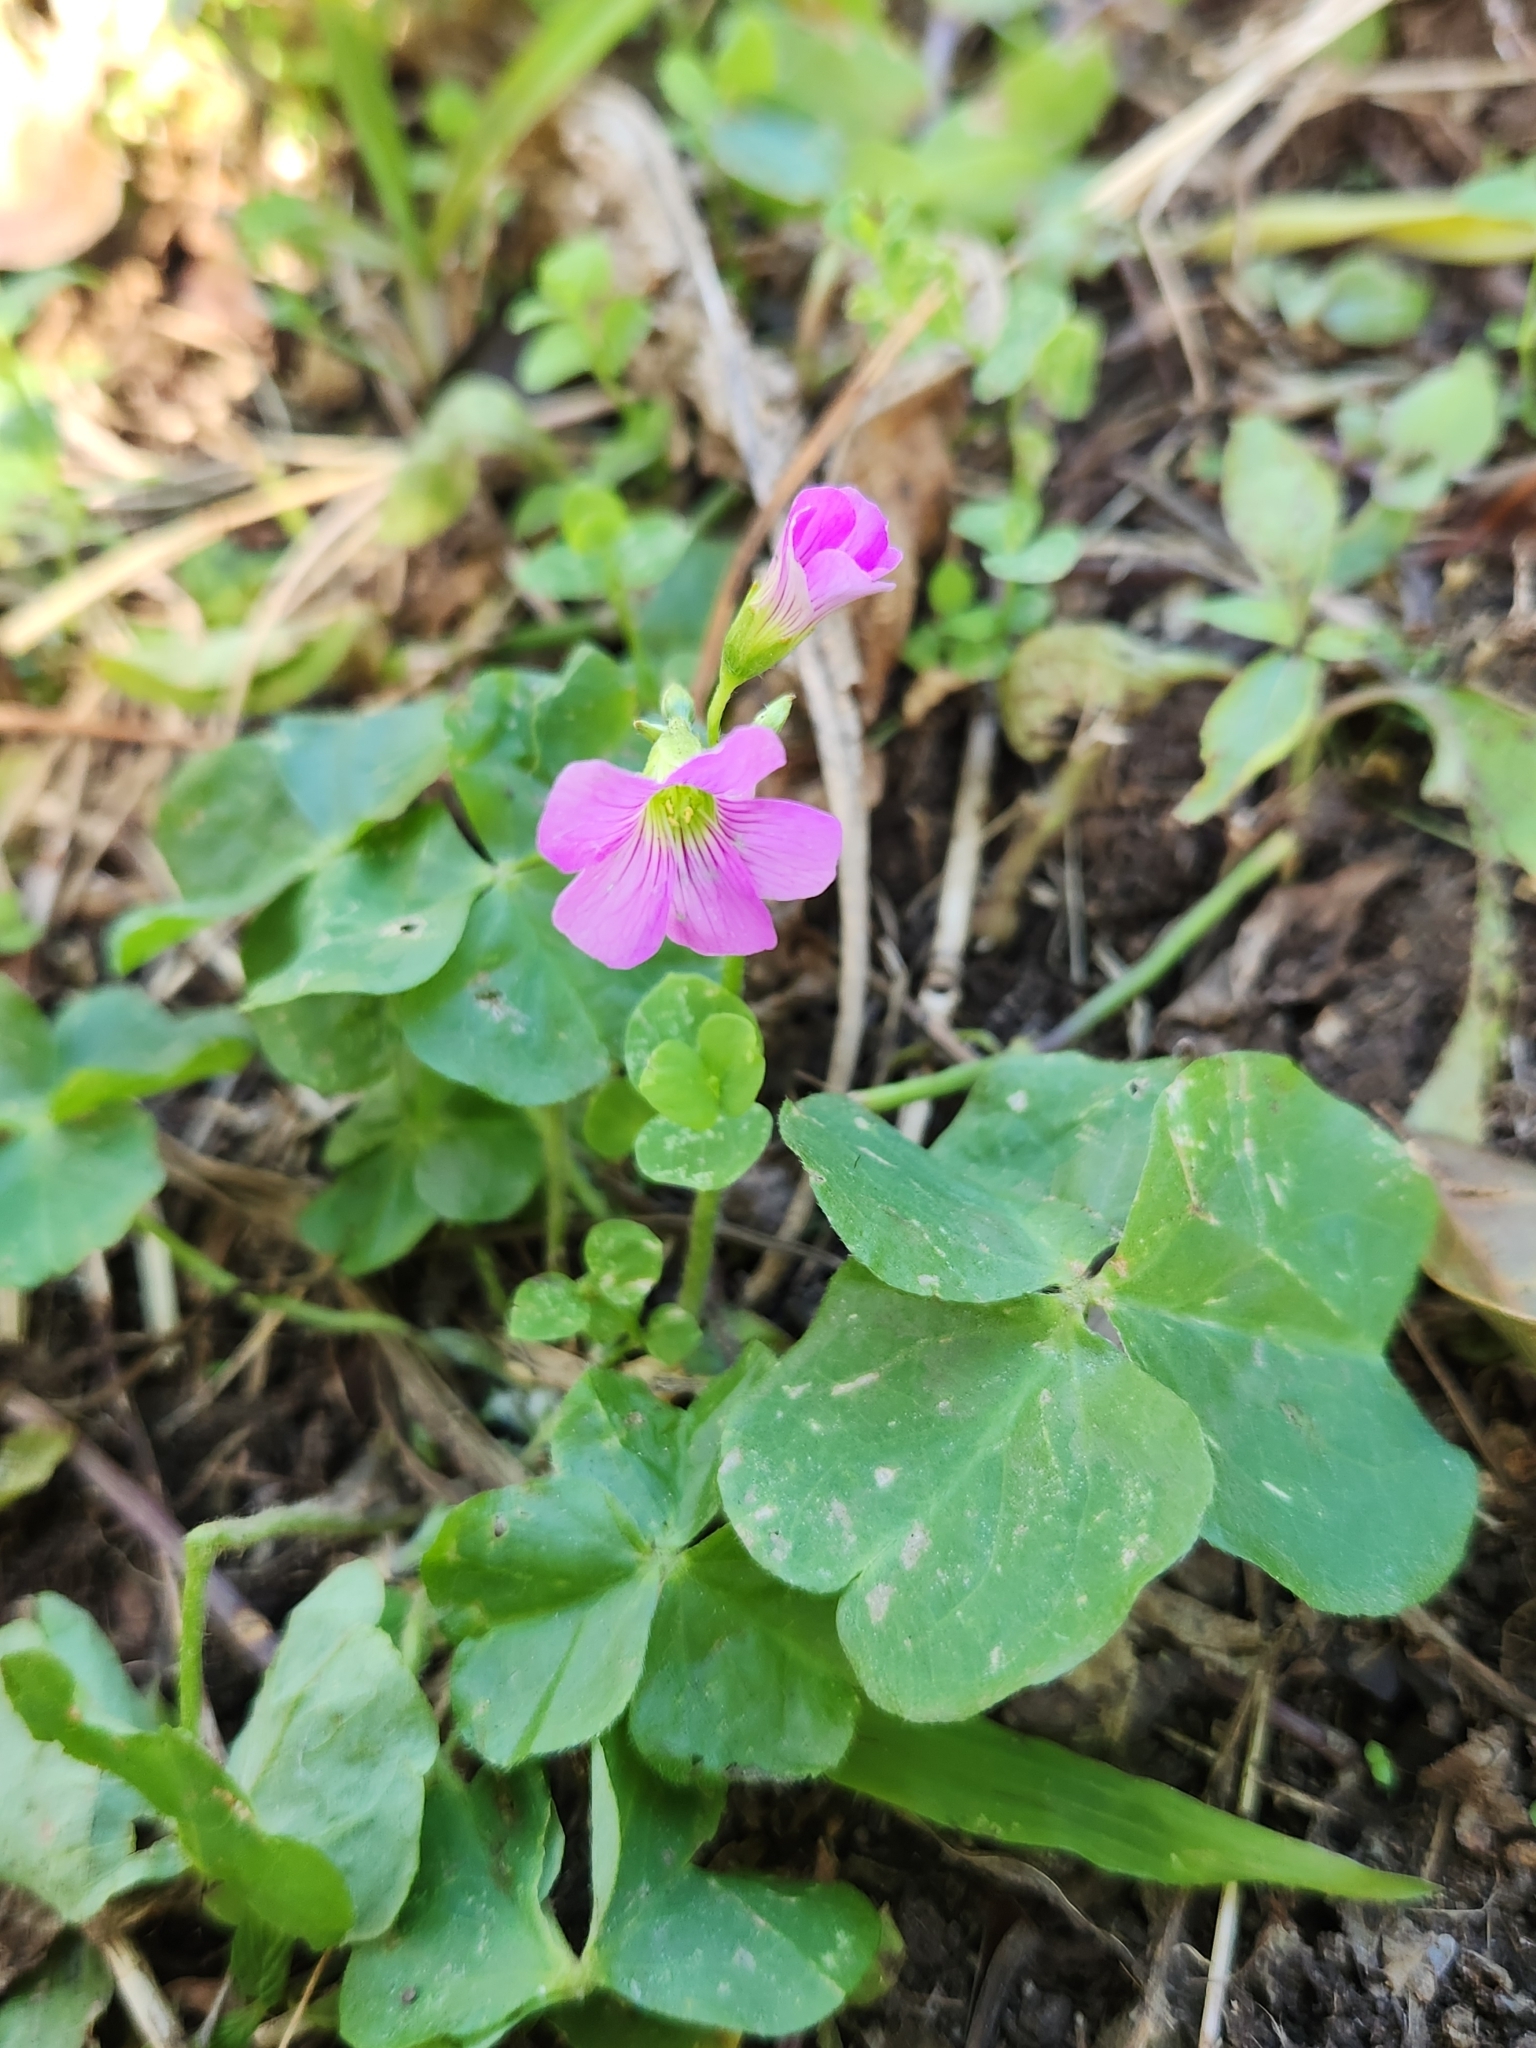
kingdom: Plantae
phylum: Tracheophyta
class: Magnoliopsida
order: Oxalidales
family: Oxalidaceae
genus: Oxalis
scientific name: Oxalis debilis
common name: Large-flowered pink-sorrel
